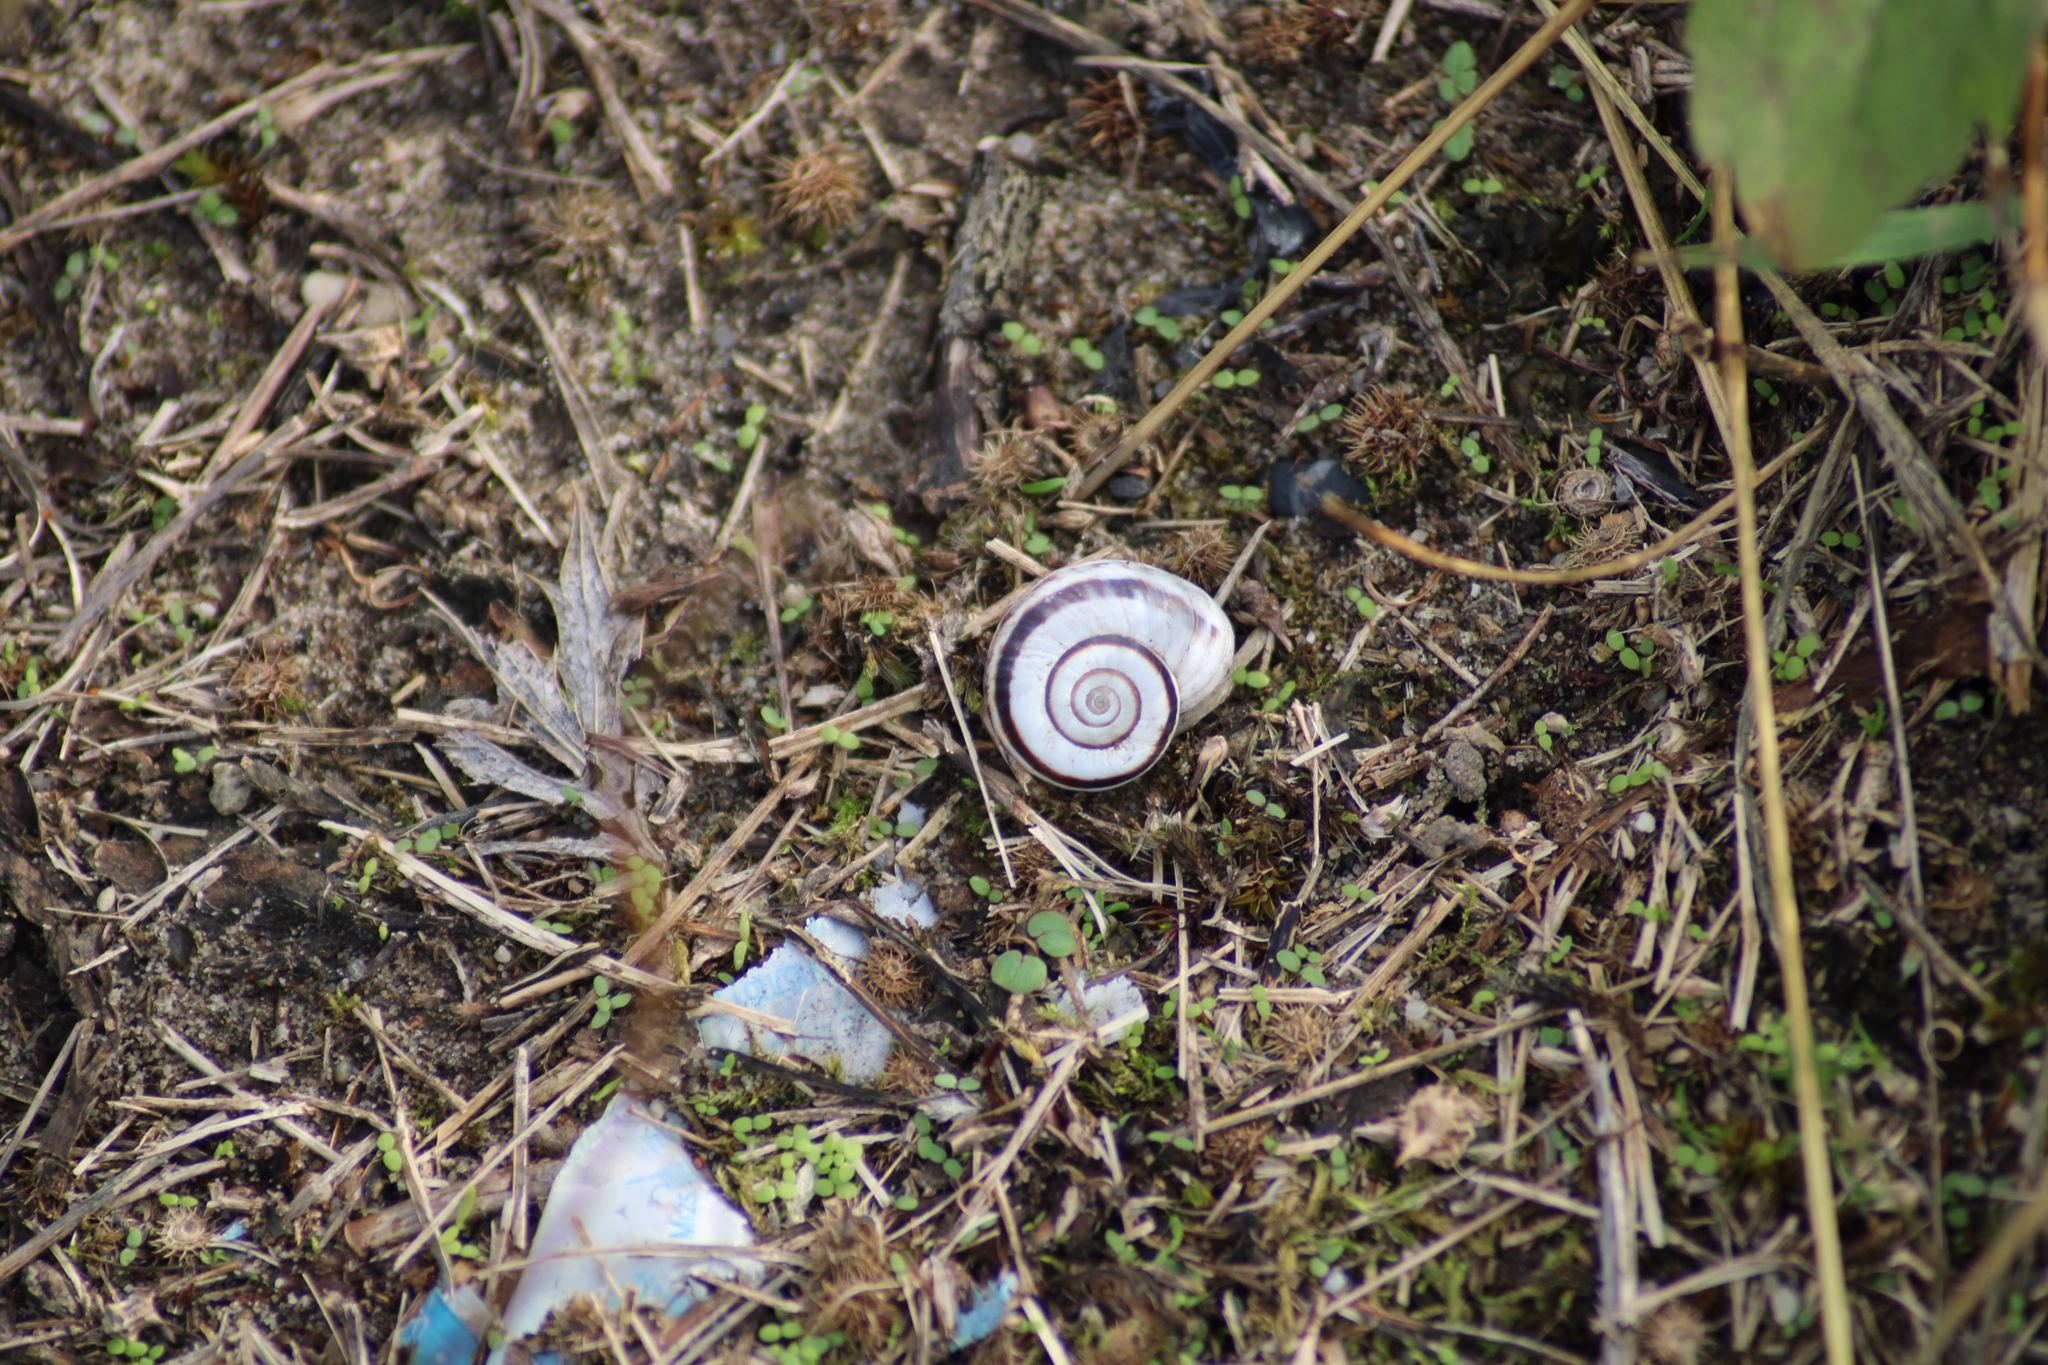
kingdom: Animalia
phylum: Mollusca
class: Gastropoda
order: Stylommatophora
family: Geomitridae
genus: Xerolenta
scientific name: Xerolenta obvia
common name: White heath snail
